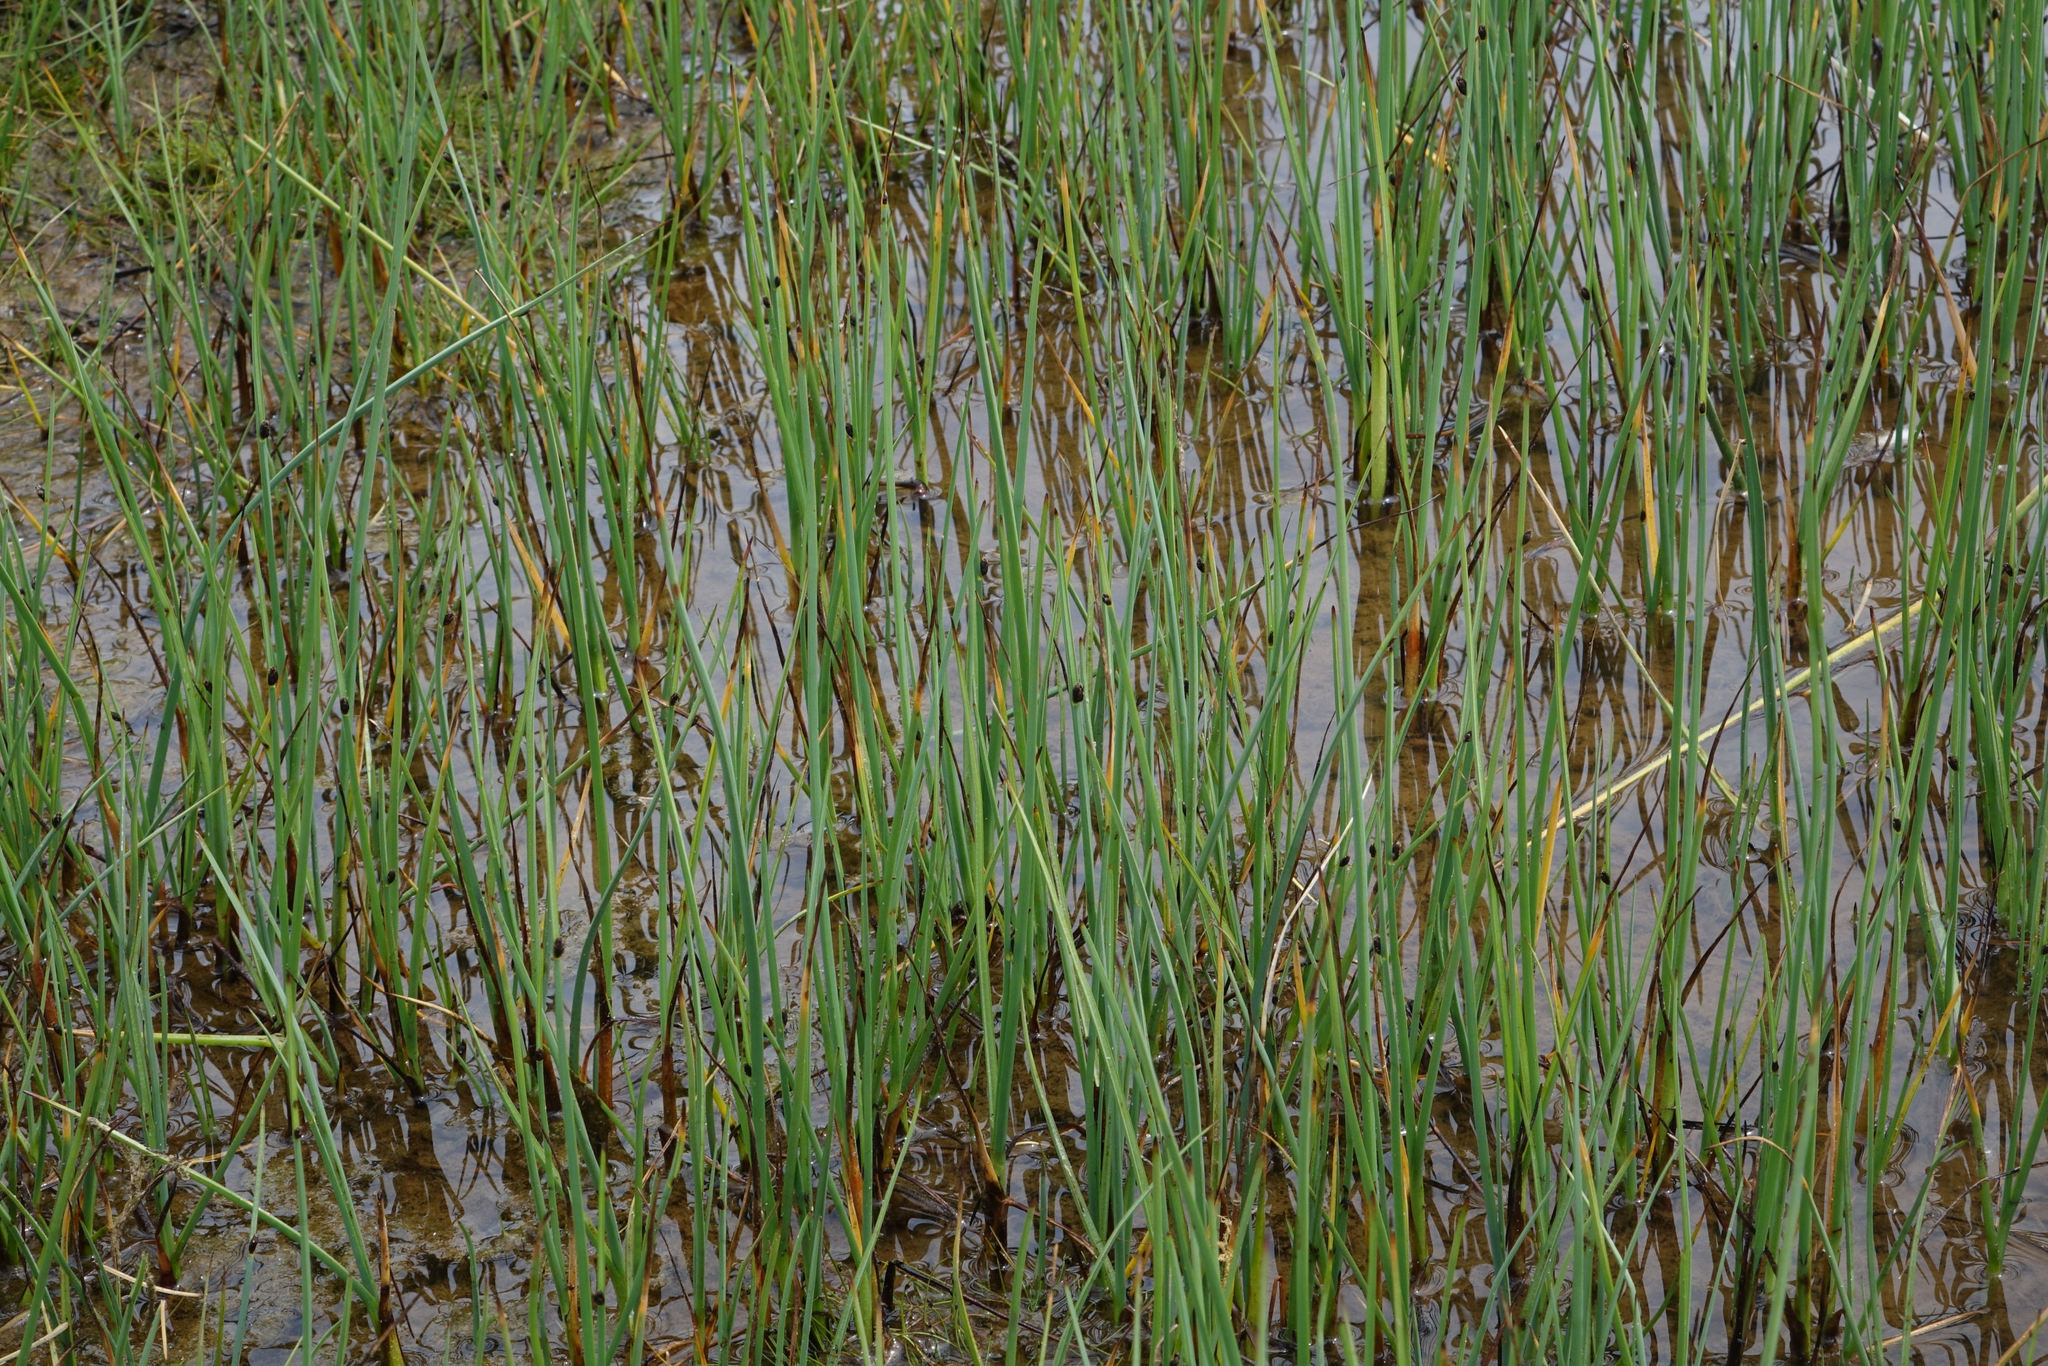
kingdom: Plantae
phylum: Tracheophyta
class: Liliopsida
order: Poales
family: Cyperaceae
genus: Schoenoplectus
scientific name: Schoenoplectus pungens
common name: Sharp club-rush
